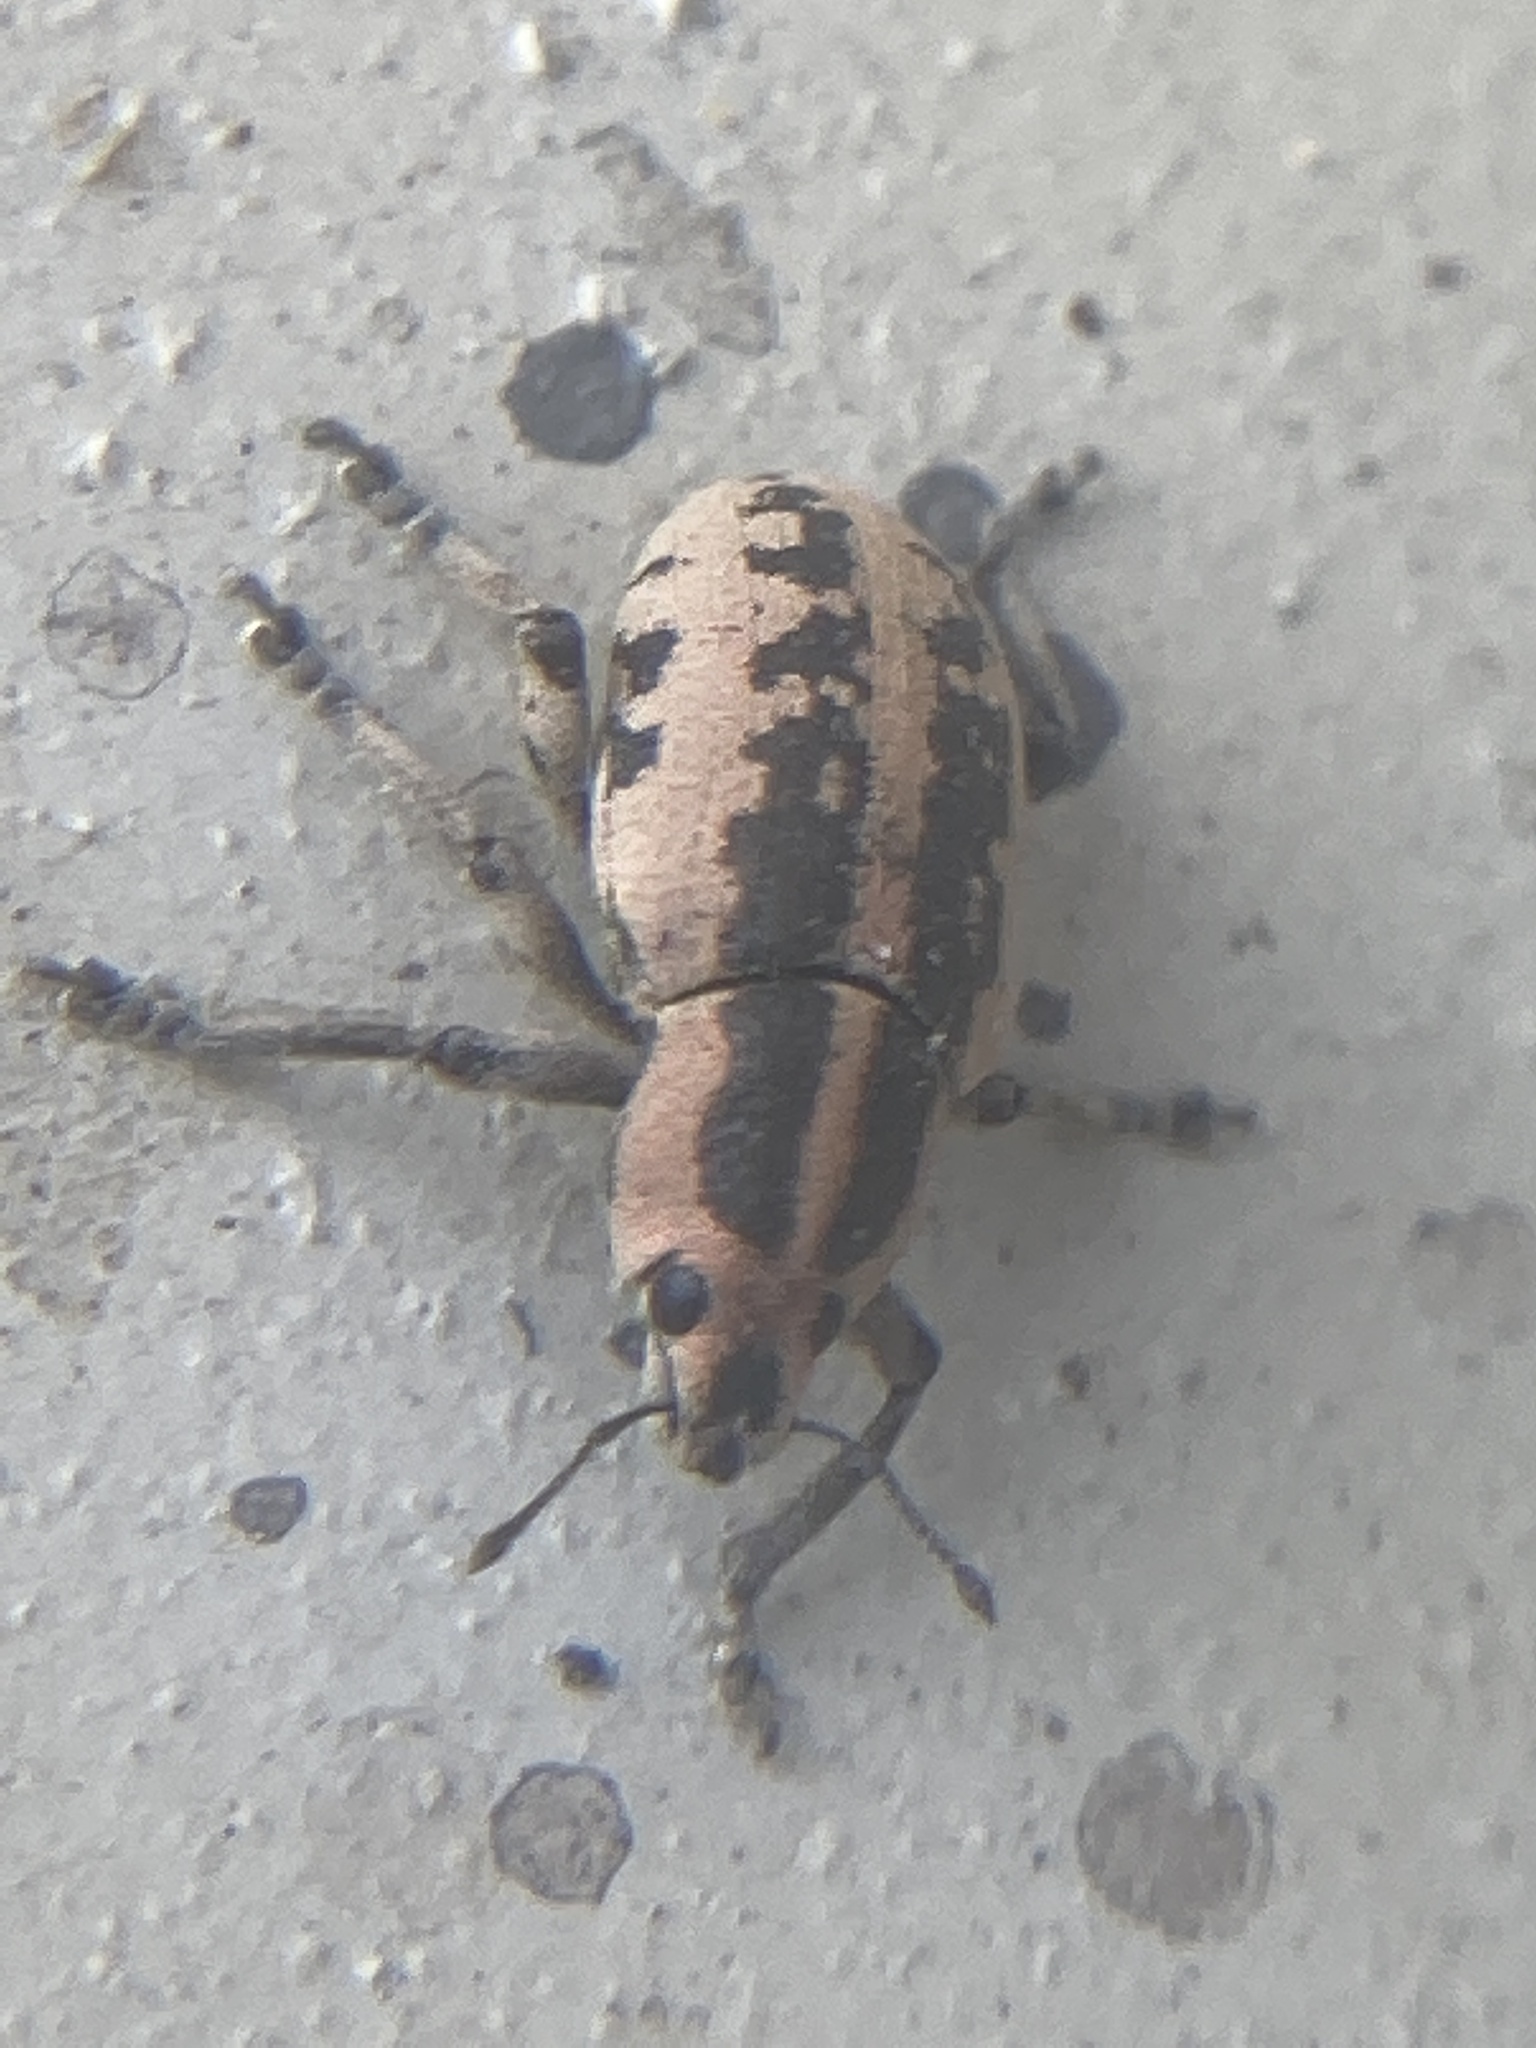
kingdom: Animalia
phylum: Arthropoda
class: Insecta
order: Coleoptera
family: Curculionidae
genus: Eudiagogus
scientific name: Eudiagogus rosenschoeldi
